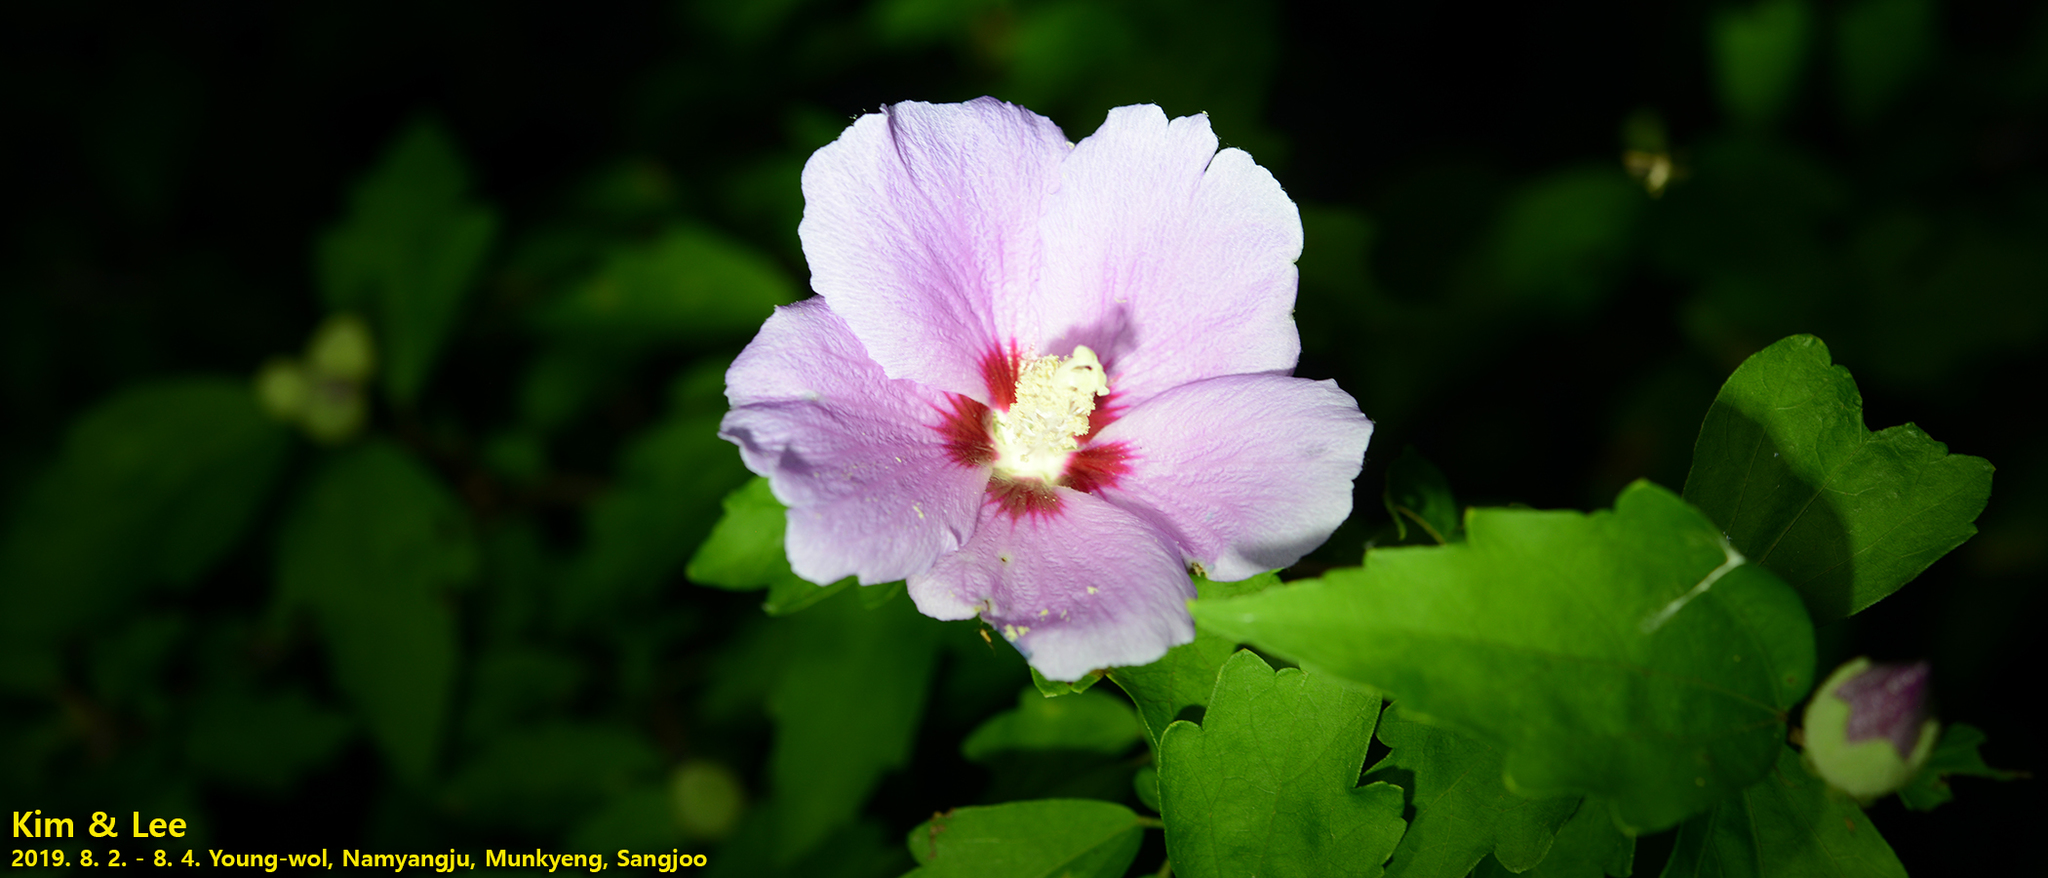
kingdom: Plantae
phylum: Tracheophyta
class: Magnoliopsida
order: Malvales
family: Malvaceae
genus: Hibiscus
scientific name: Hibiscus syriacus
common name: Syrian ketmia
